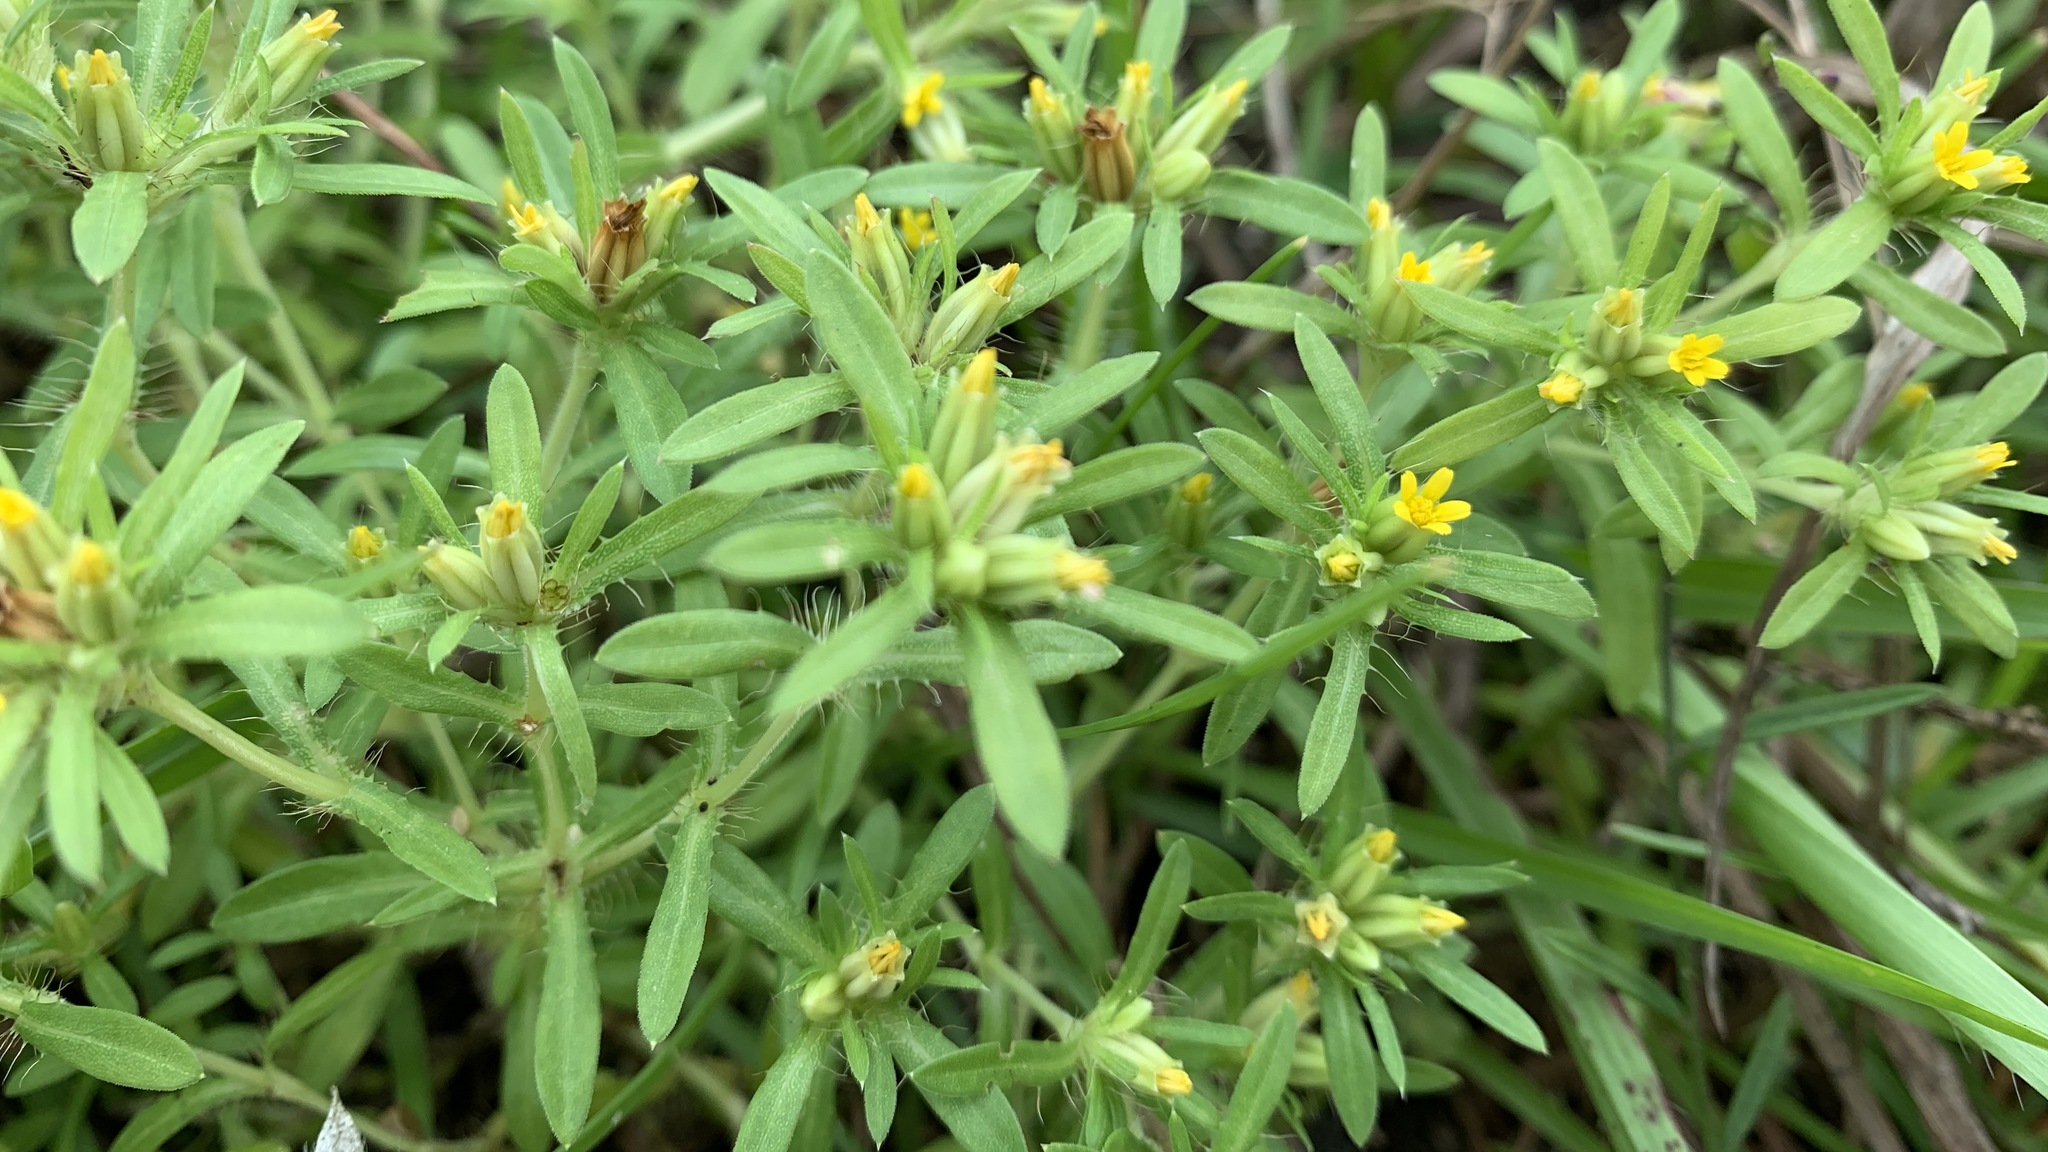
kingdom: Plantae
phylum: Tracheophyta
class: Magnoliopsida
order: Asterales
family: Asteraceae
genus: Pectis
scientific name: Pectis prostrata
